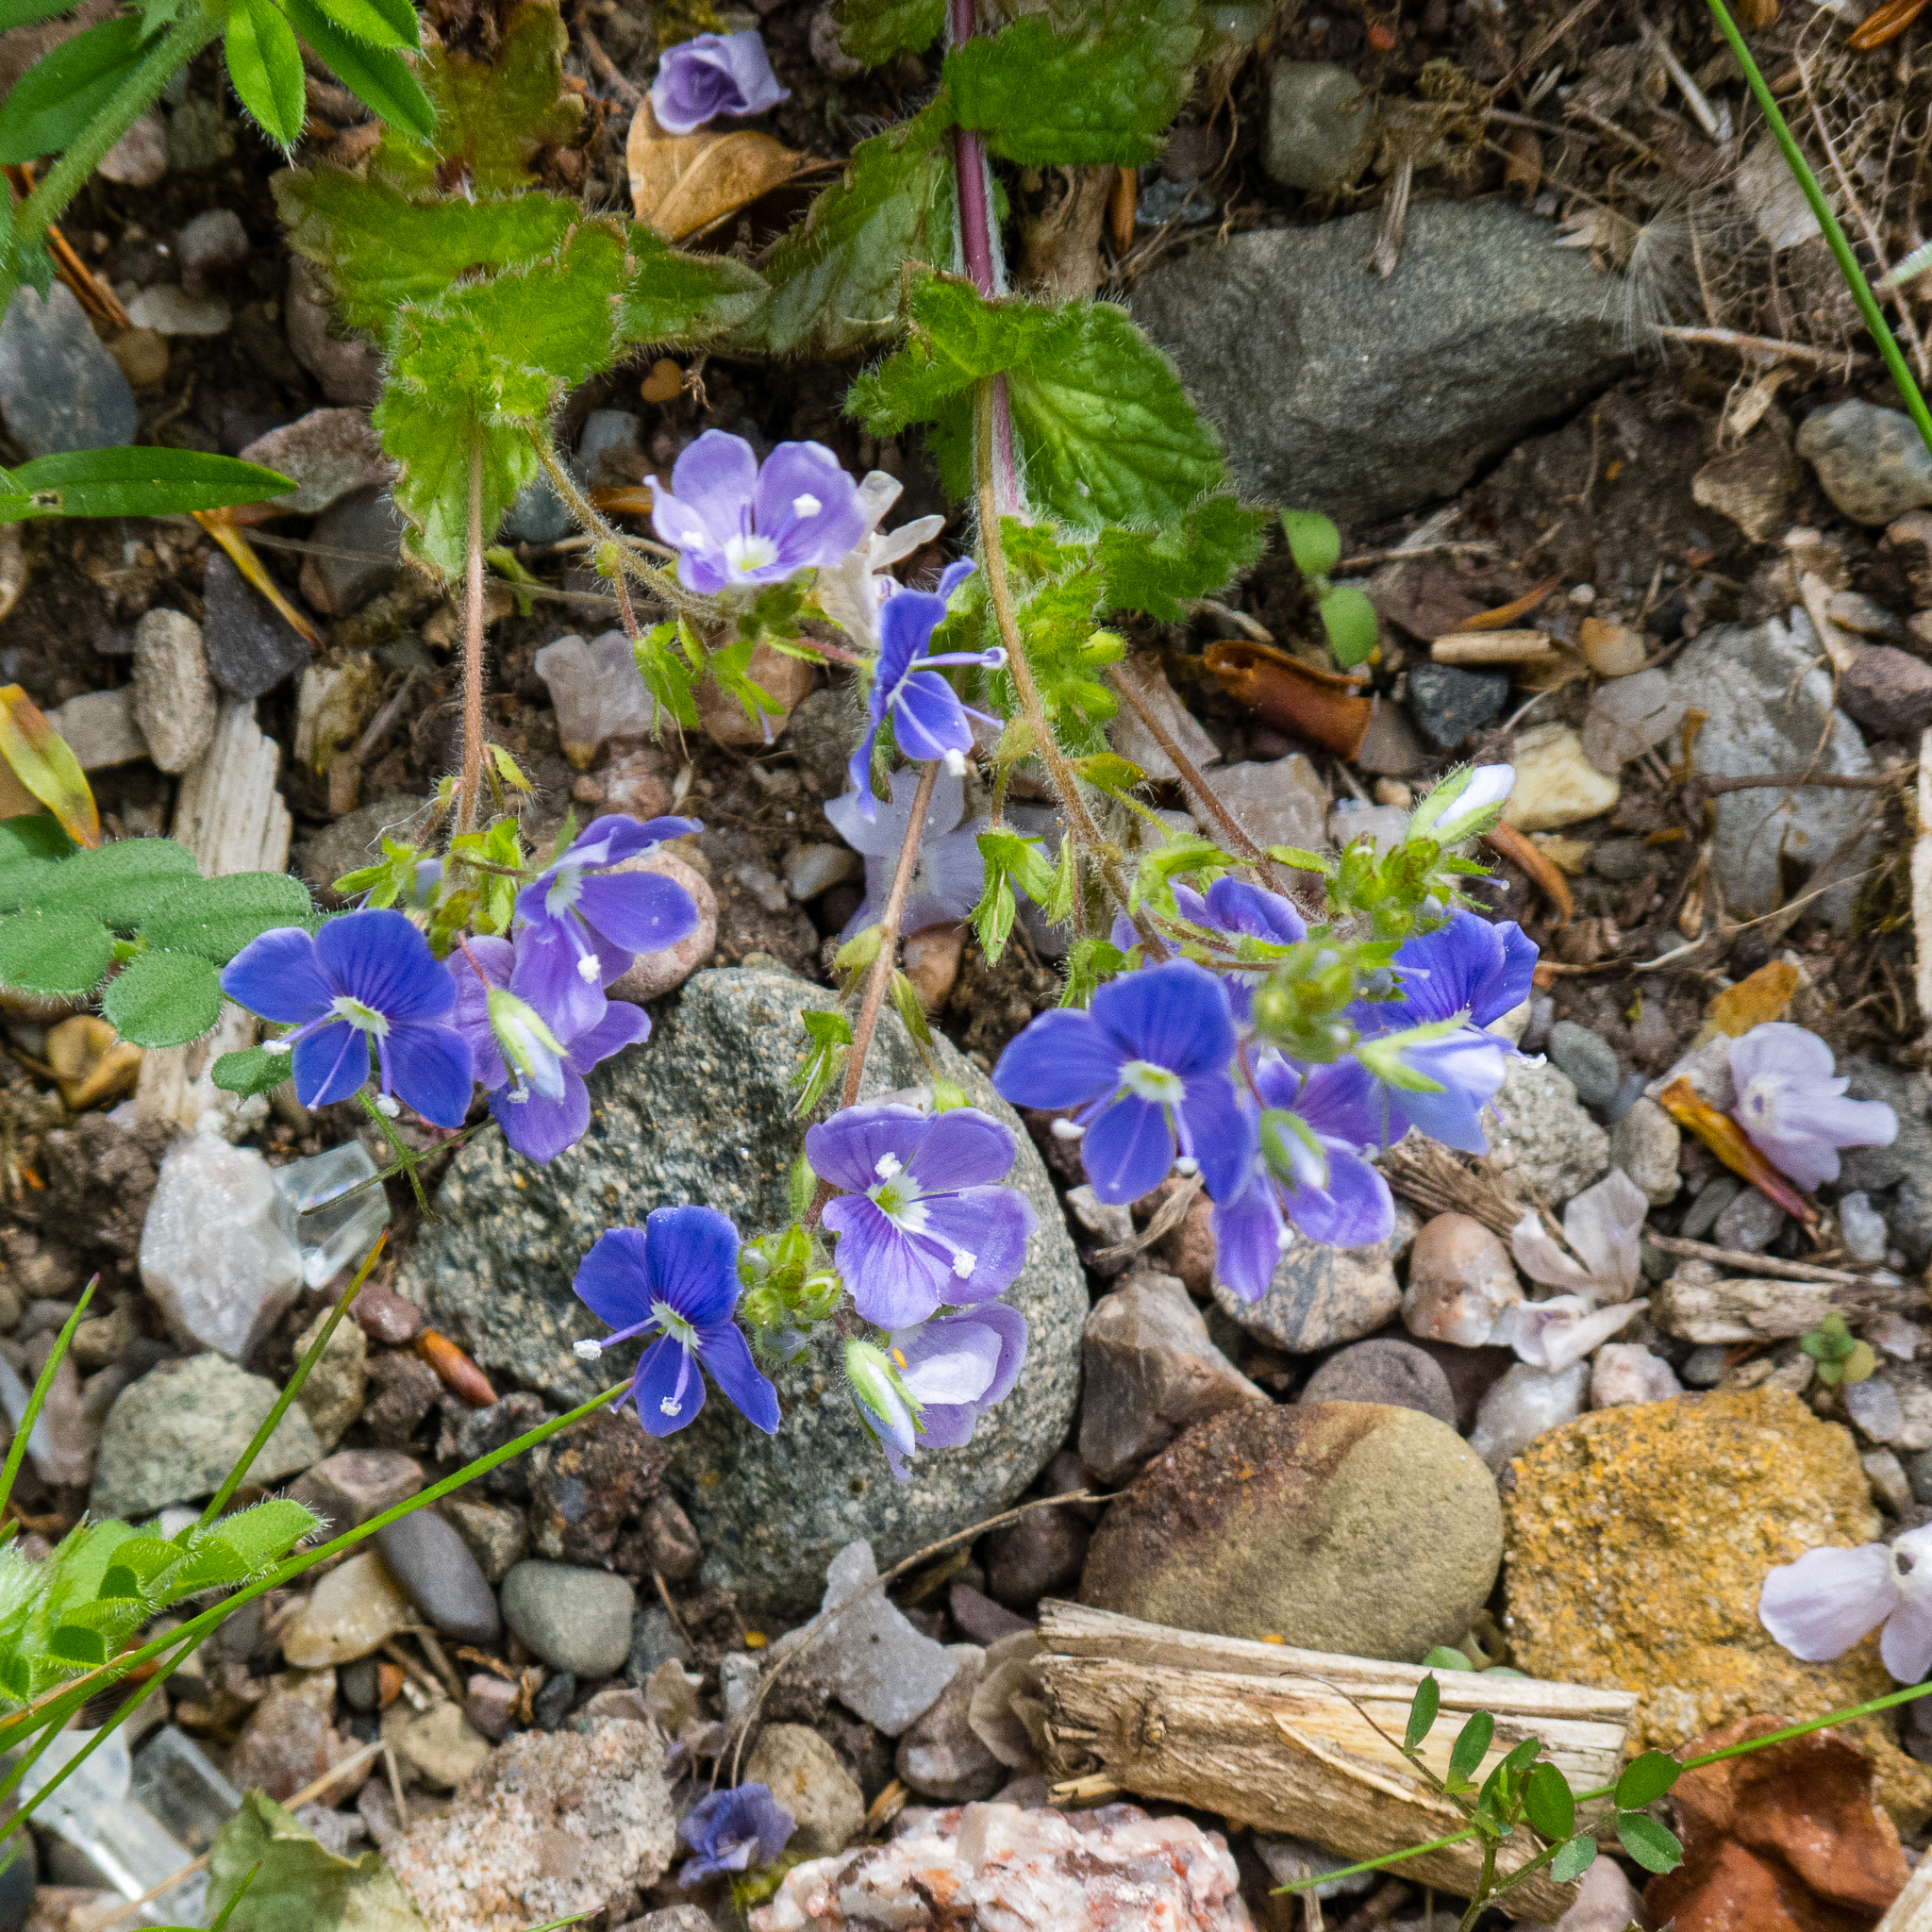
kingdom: Plantae
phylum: Tracheophyta
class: Magnoliopsida
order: Lamiales
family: Plantaginaceae
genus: Veronica
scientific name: Veronica chamaedrys
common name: Germander speedwell
